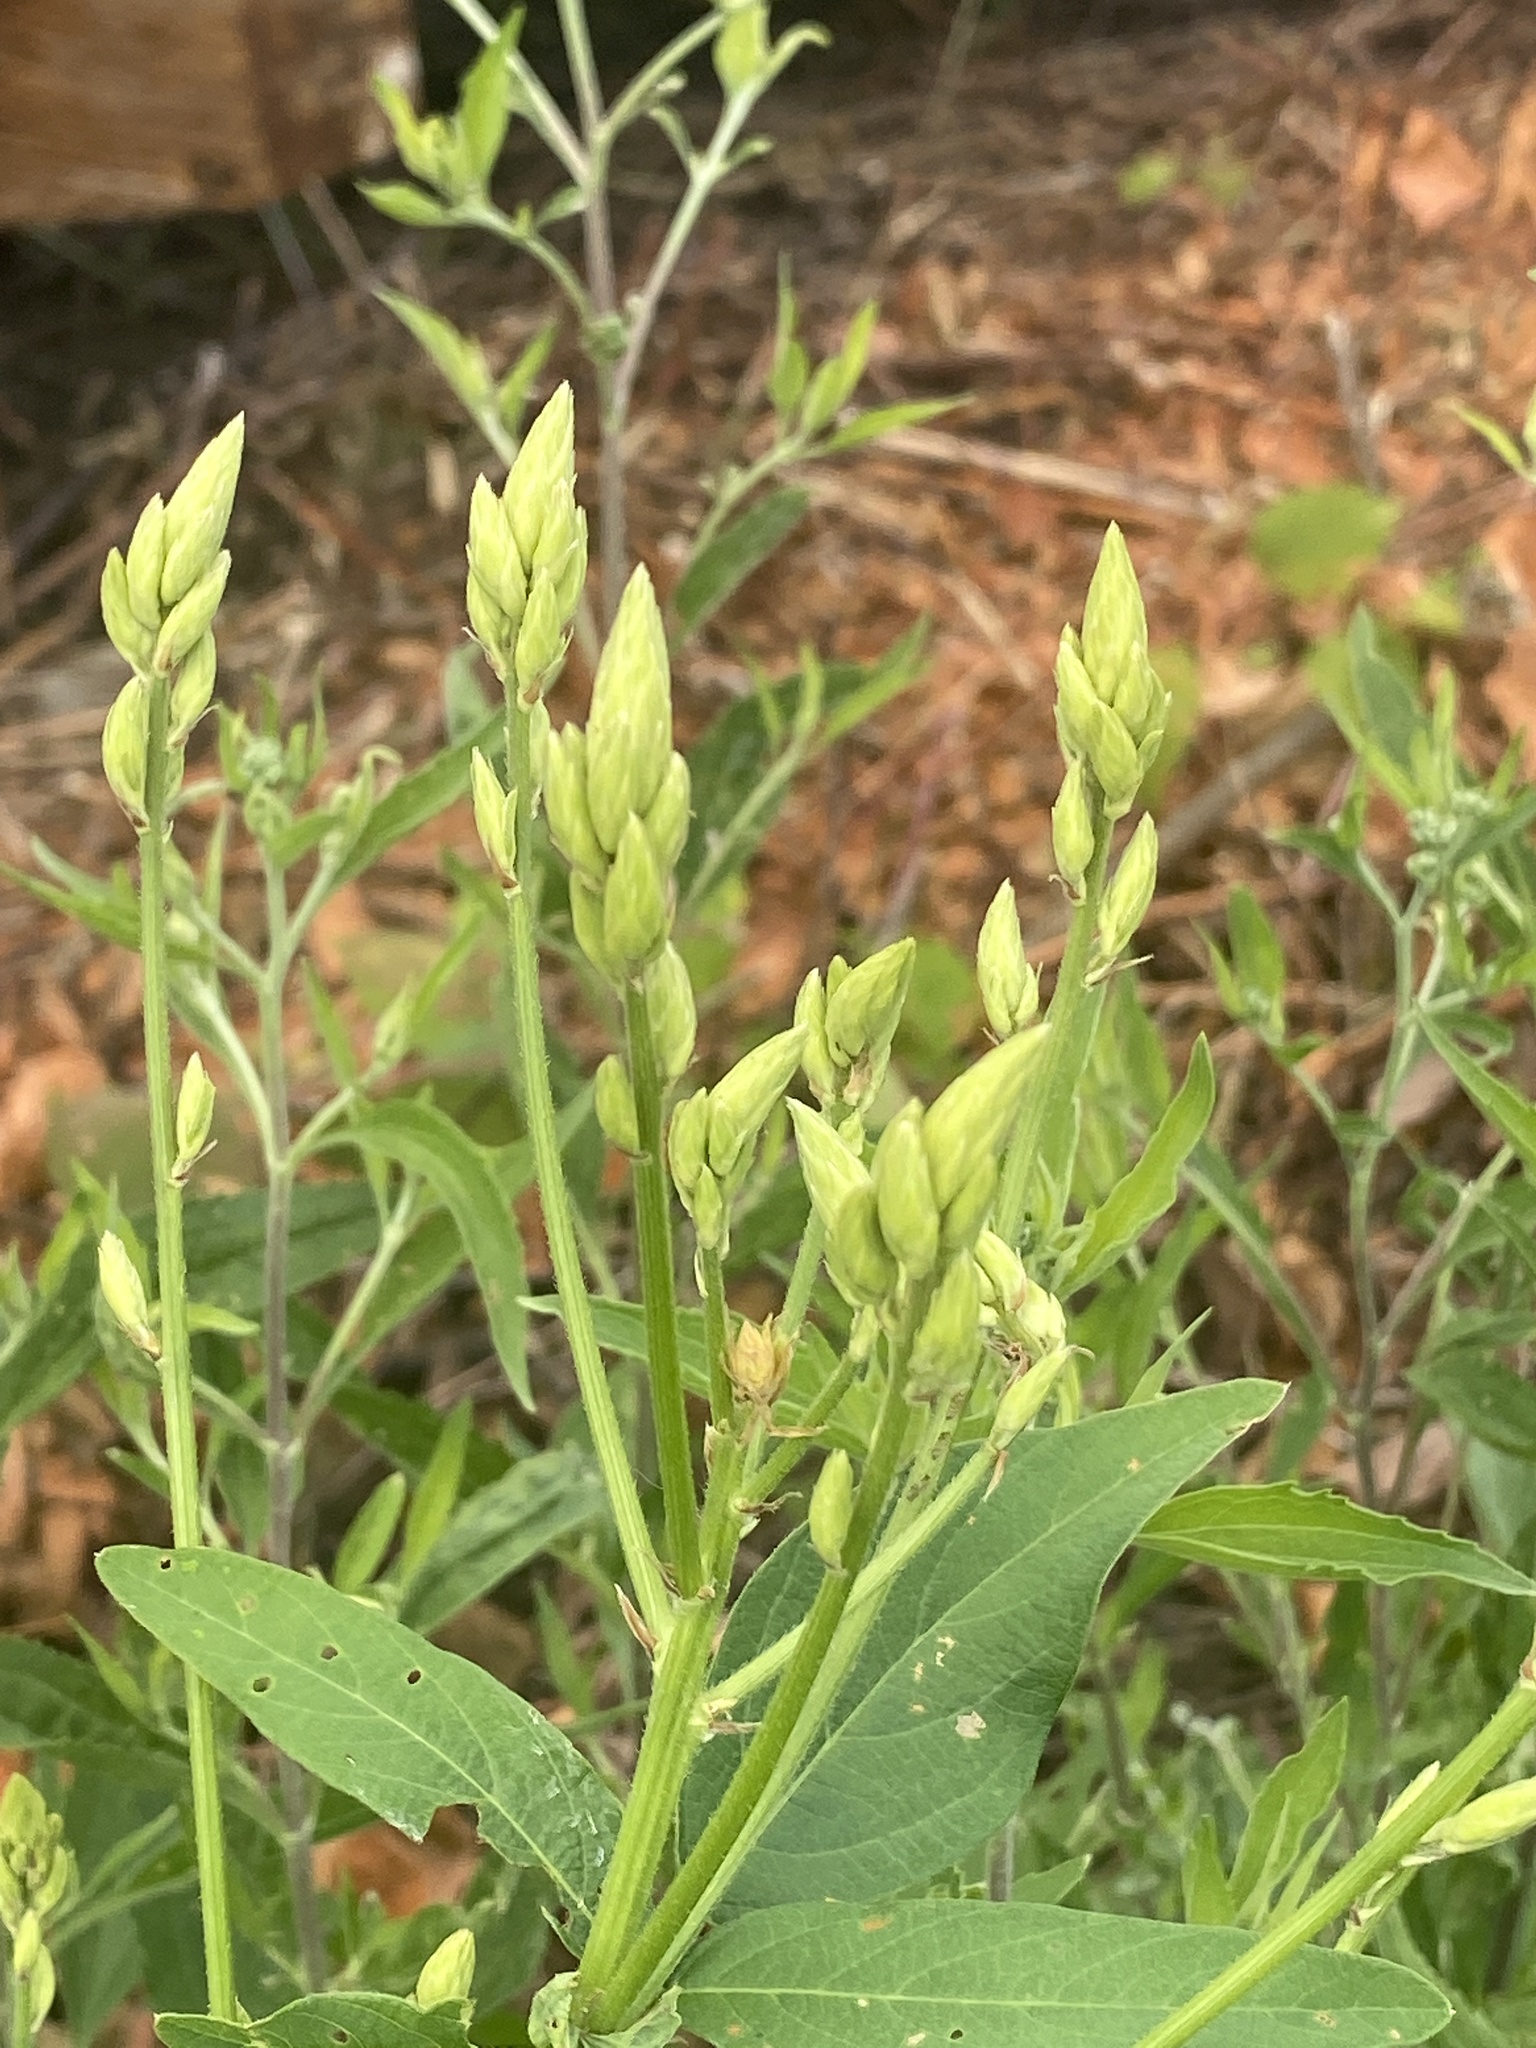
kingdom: Plantae
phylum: Tracheophyta
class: Magnoliopsida
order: Fabales
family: Fabaceae
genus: Desmodium
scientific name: Desmodium canadense
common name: Canada tick-trefoil
